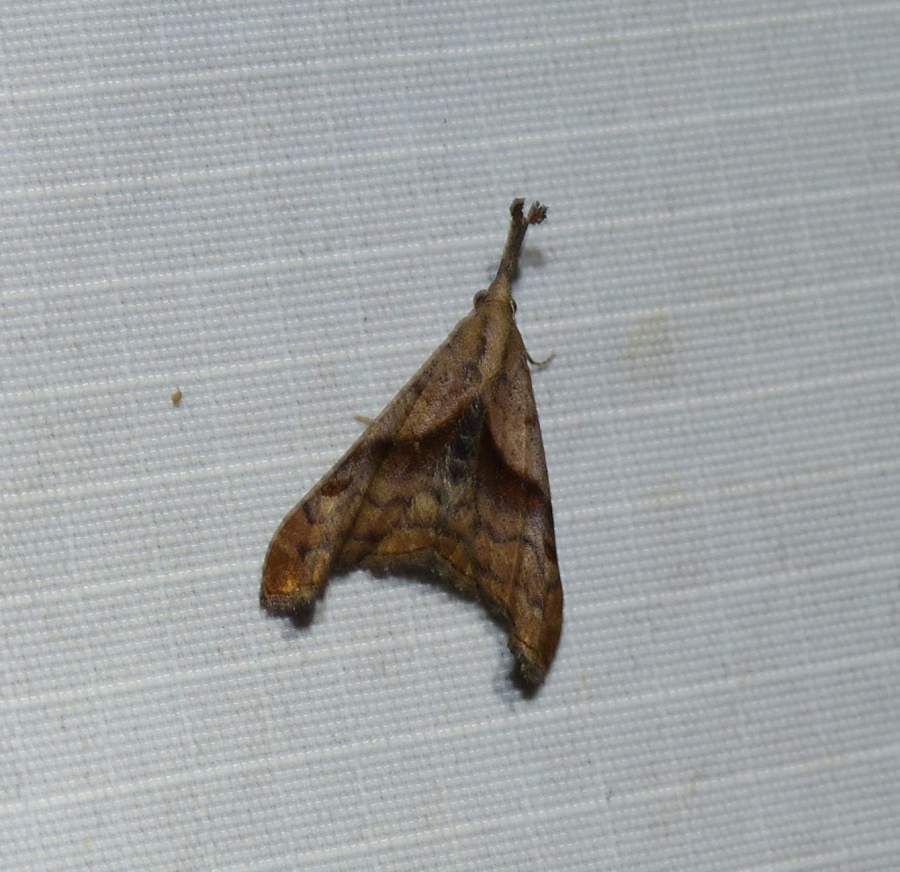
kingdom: Animalia
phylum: Arthropoda
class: Insecta
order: Lepidoptera
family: Erebidae
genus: Palthis
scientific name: Palthis angulalis
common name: Dark-spotted palthis moth
